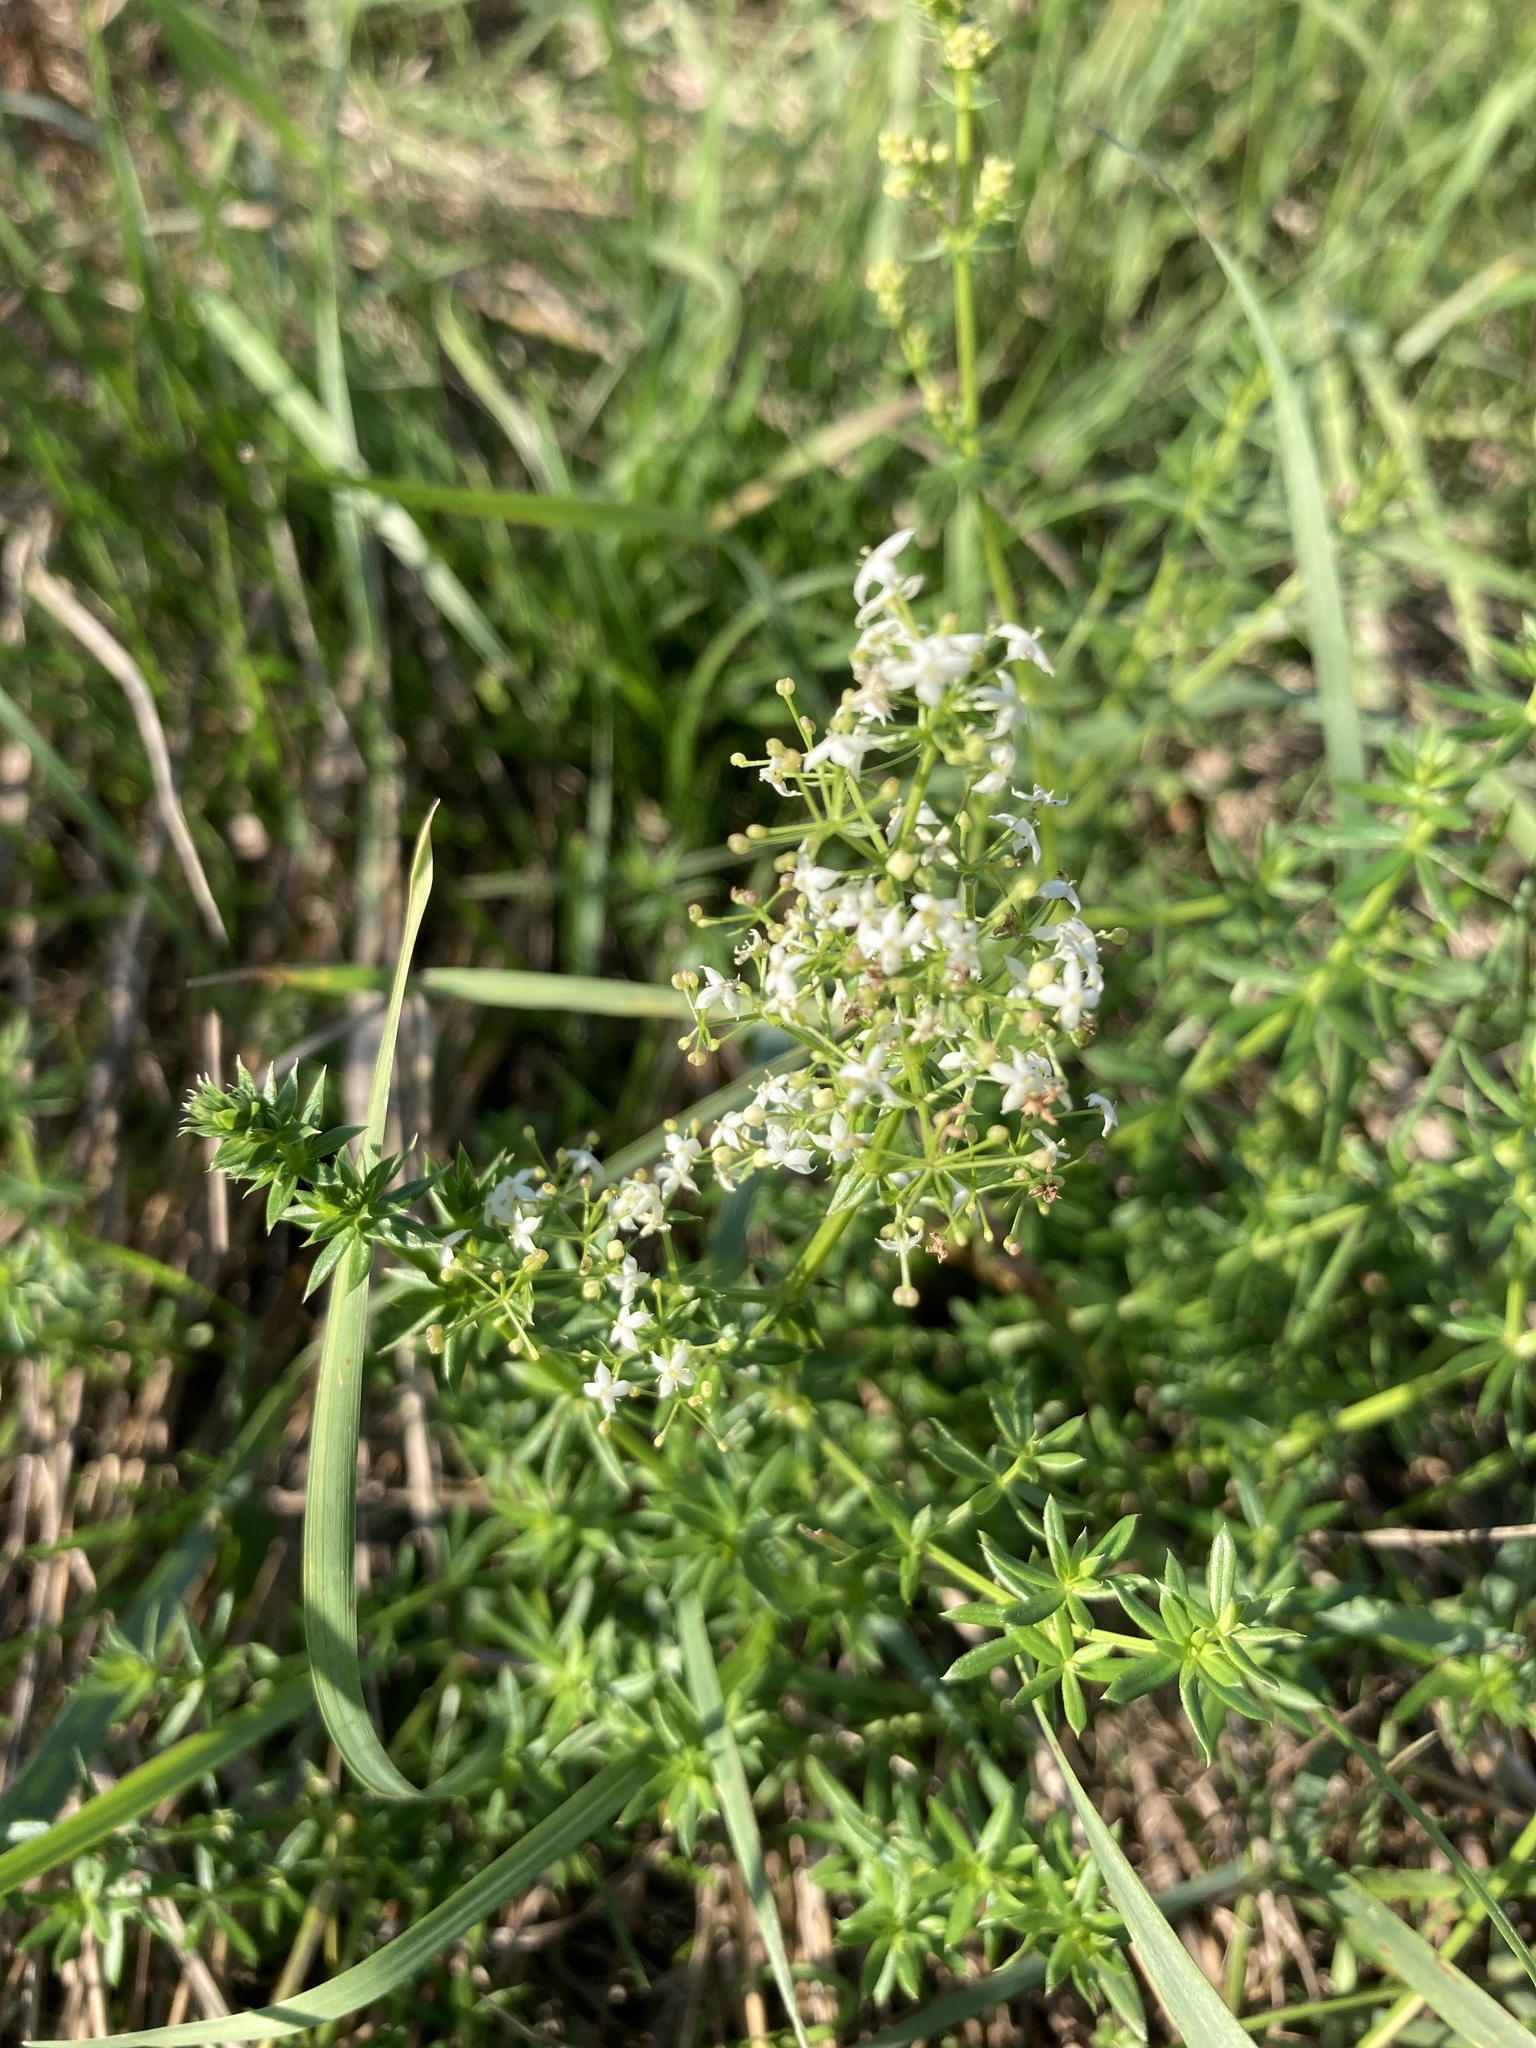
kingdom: Plantae
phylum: Tracheophyta
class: Magnoliopsida
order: Gentianales
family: Rubiaceae
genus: Galium
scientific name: Galium mollugo
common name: Hedge bedstraw
